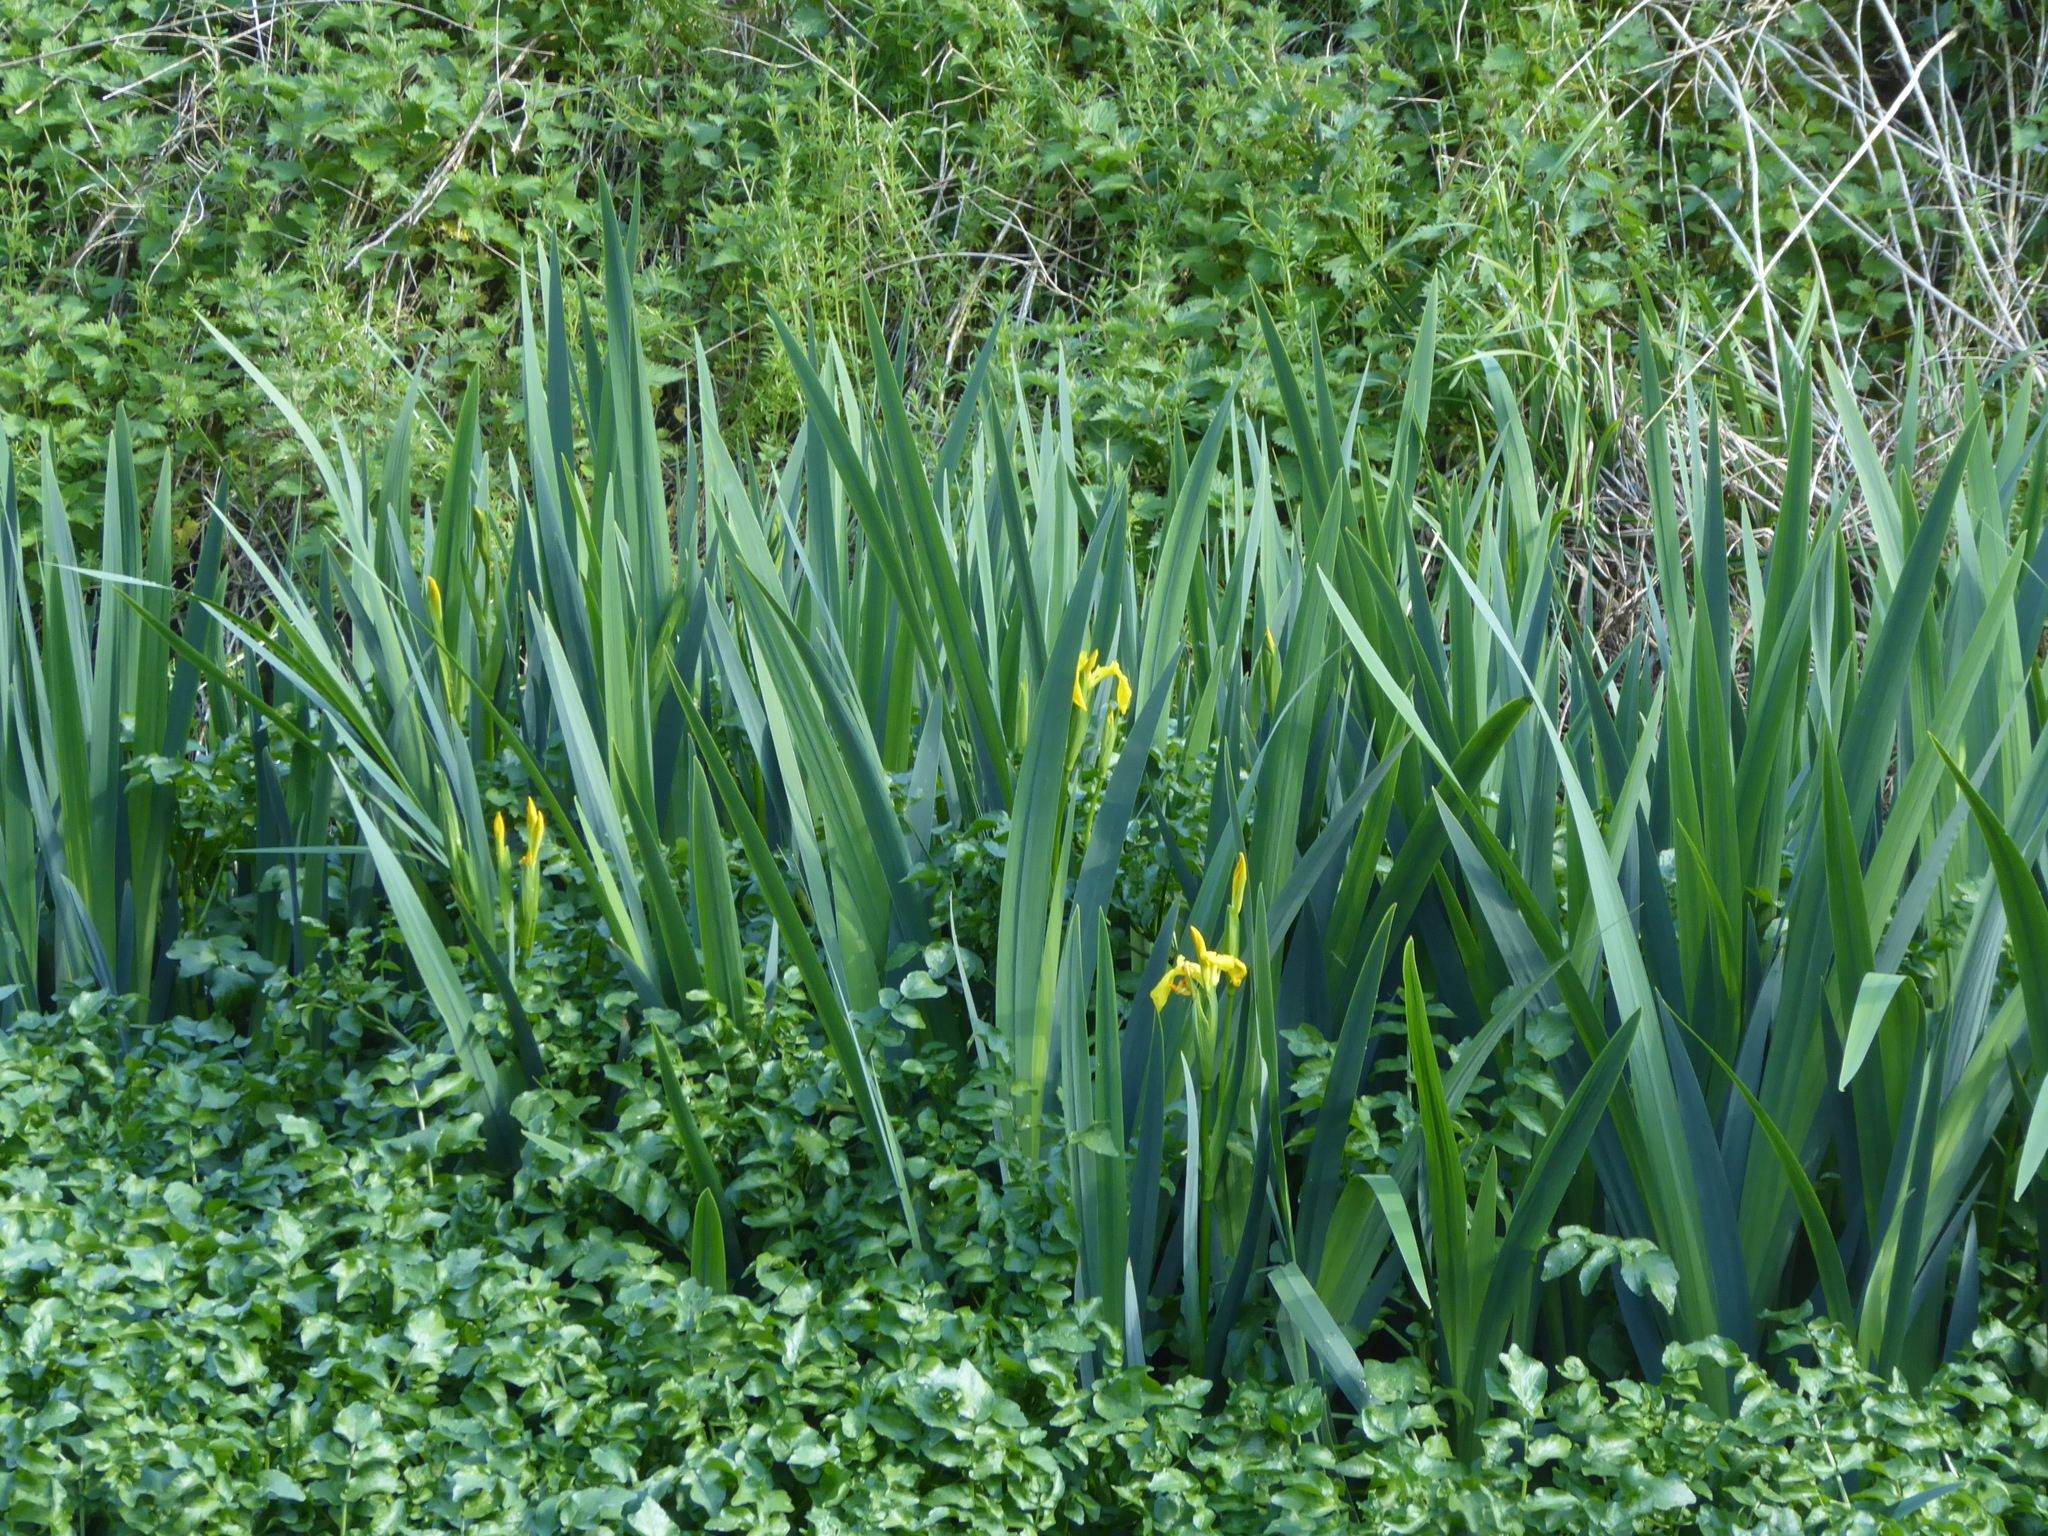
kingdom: Plantae
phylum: Tracheophyta
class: Liliopsida
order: Asparagales
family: Iridaceae
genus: Iris
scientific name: Iris pseudacorus
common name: Yellow flag
